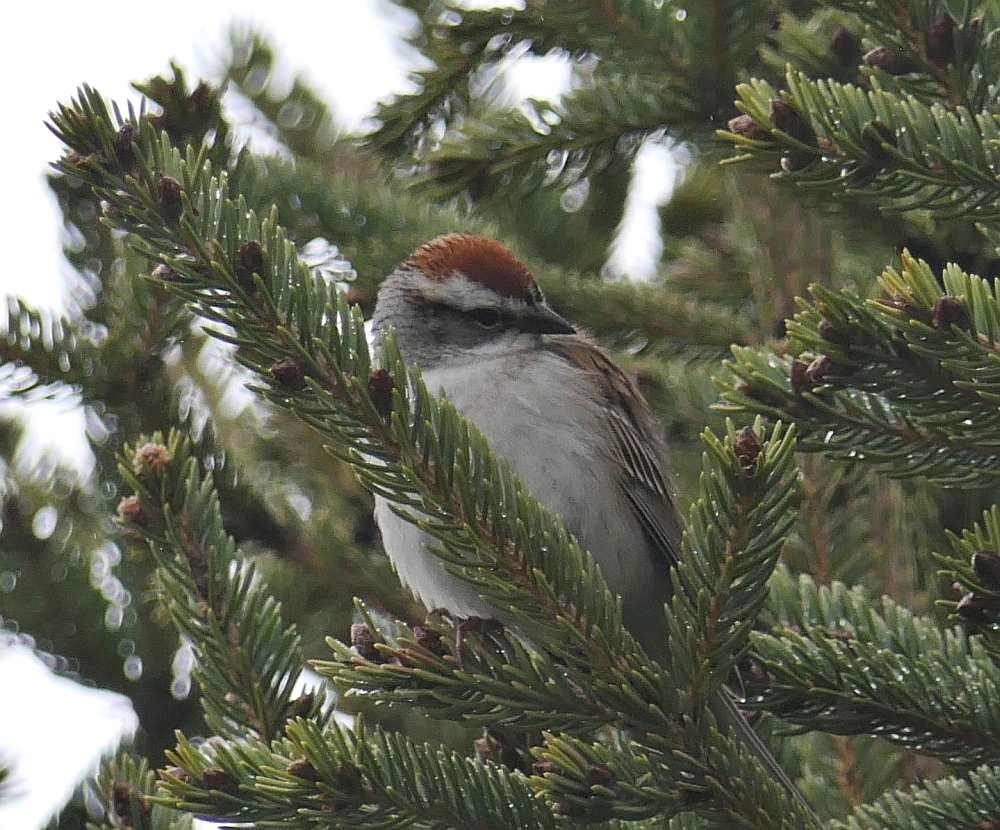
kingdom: Animalia
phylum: Chordata
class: Aves
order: Passeriformes
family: Passerellidae
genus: Spizella
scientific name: Spizella passerina
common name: Chipping sparrow
